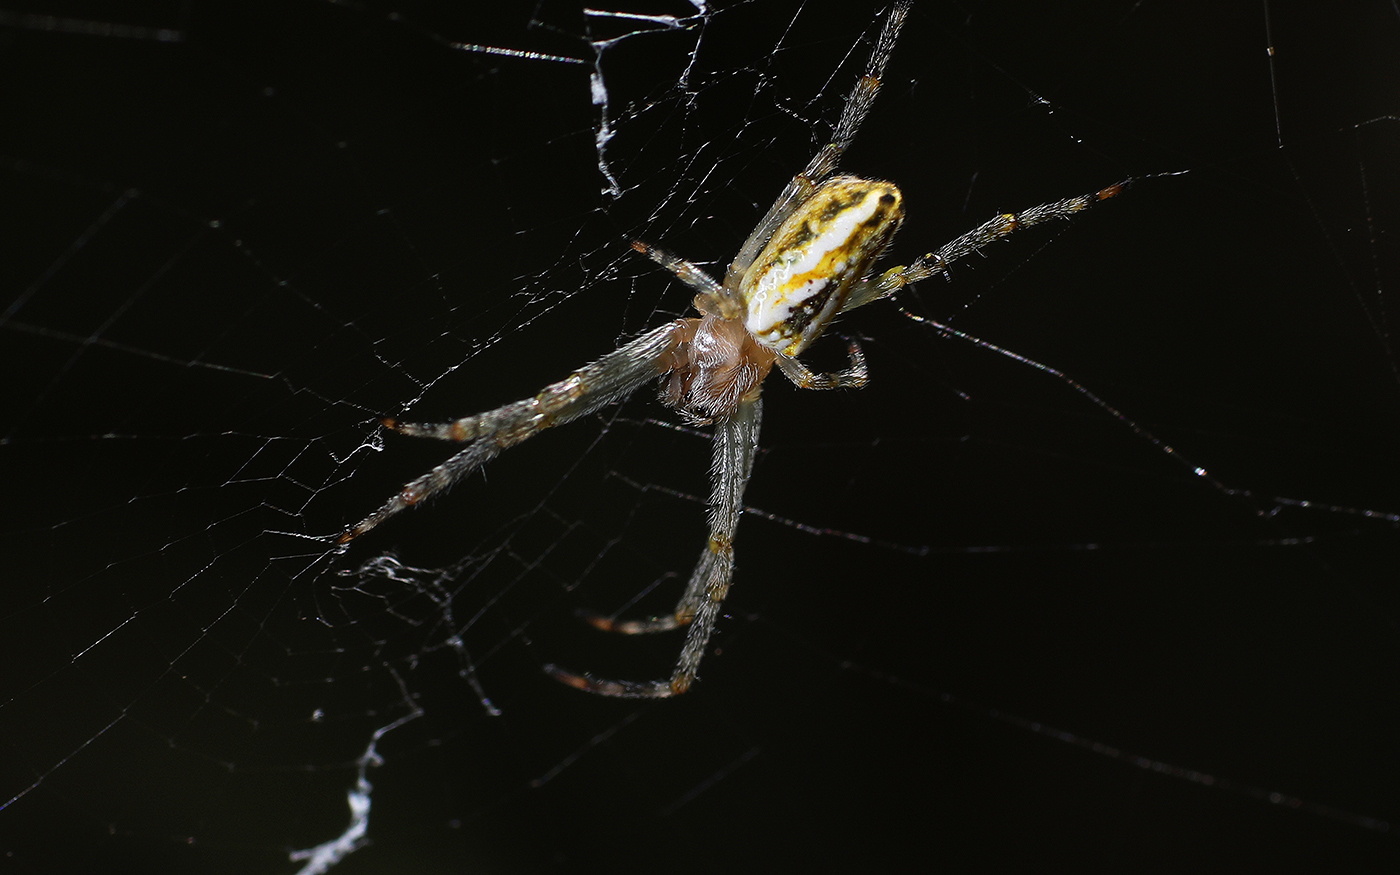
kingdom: Animalia
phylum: Arthropoda
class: Arachnida
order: Araneae
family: Araneidae
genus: Plebs
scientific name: Plebs bradleyi
